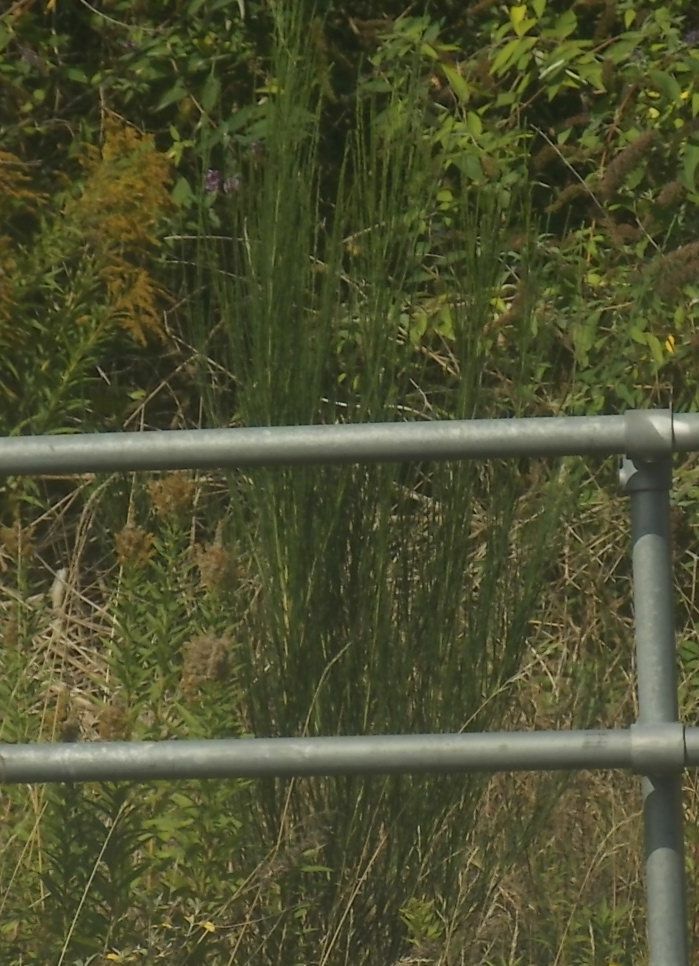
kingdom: Plantae
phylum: Tracheophyta
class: Magnoliopsida
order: Fabales
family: Fabaceae
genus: Cytisus
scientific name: Cytisus scoparius
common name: Scotch broom
